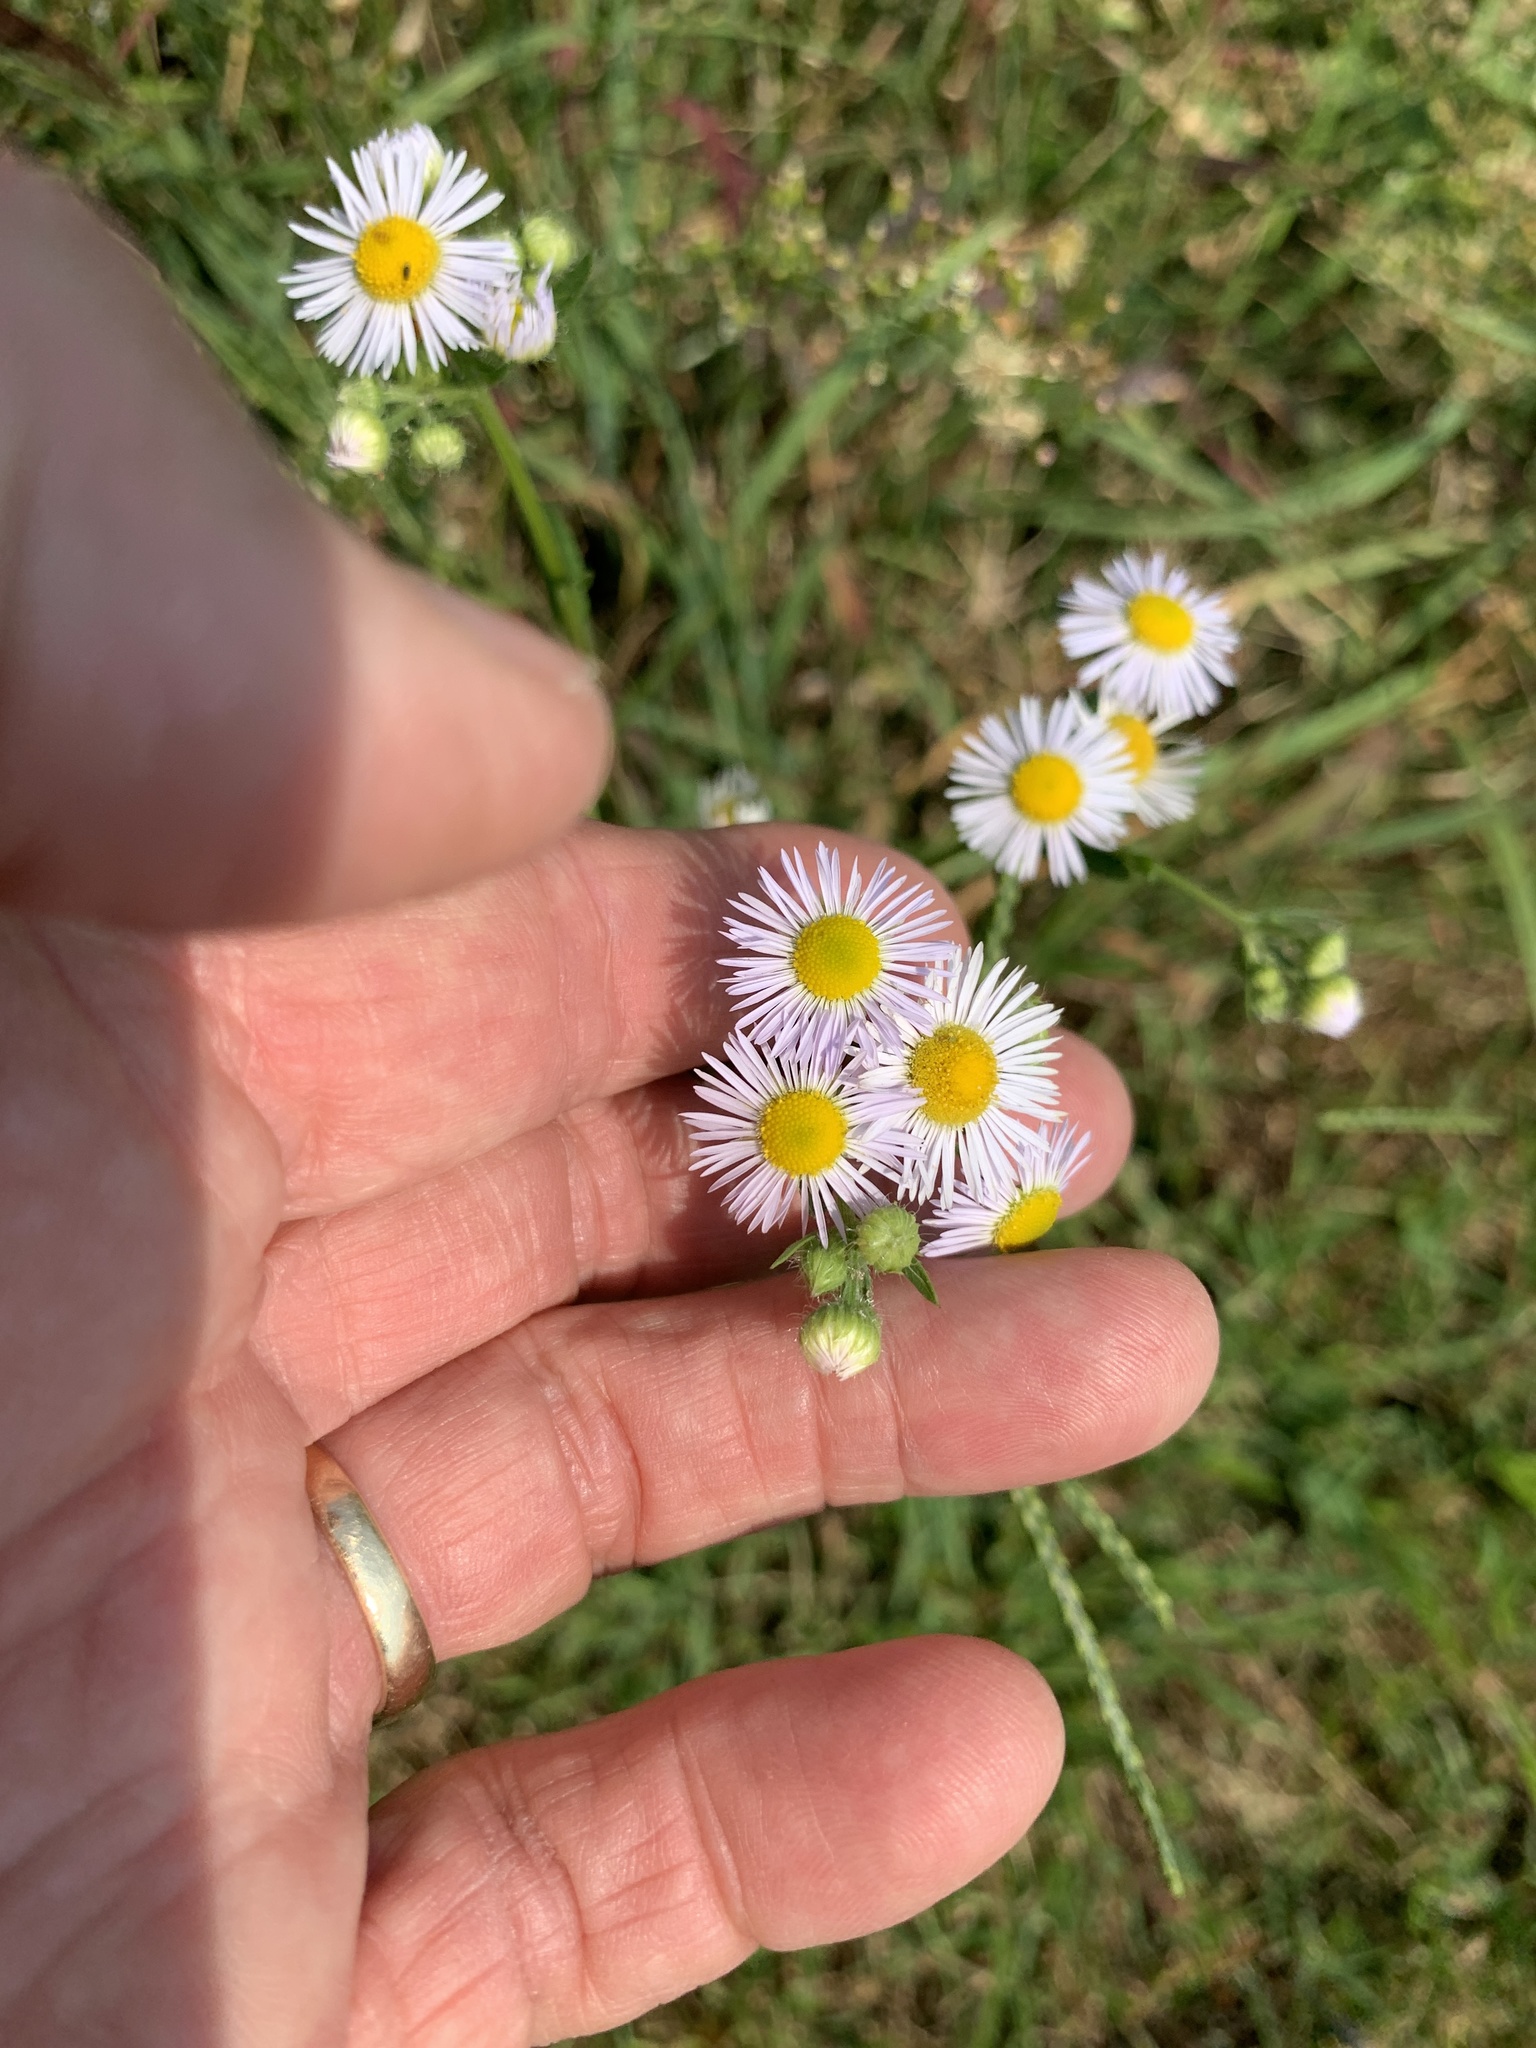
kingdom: Plantae
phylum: Tracheophyta
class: Magnoliopsida
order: Asterales
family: Asteraceae
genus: Erigeron
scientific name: Erigeron strigosus
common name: Common eastern fleabane
